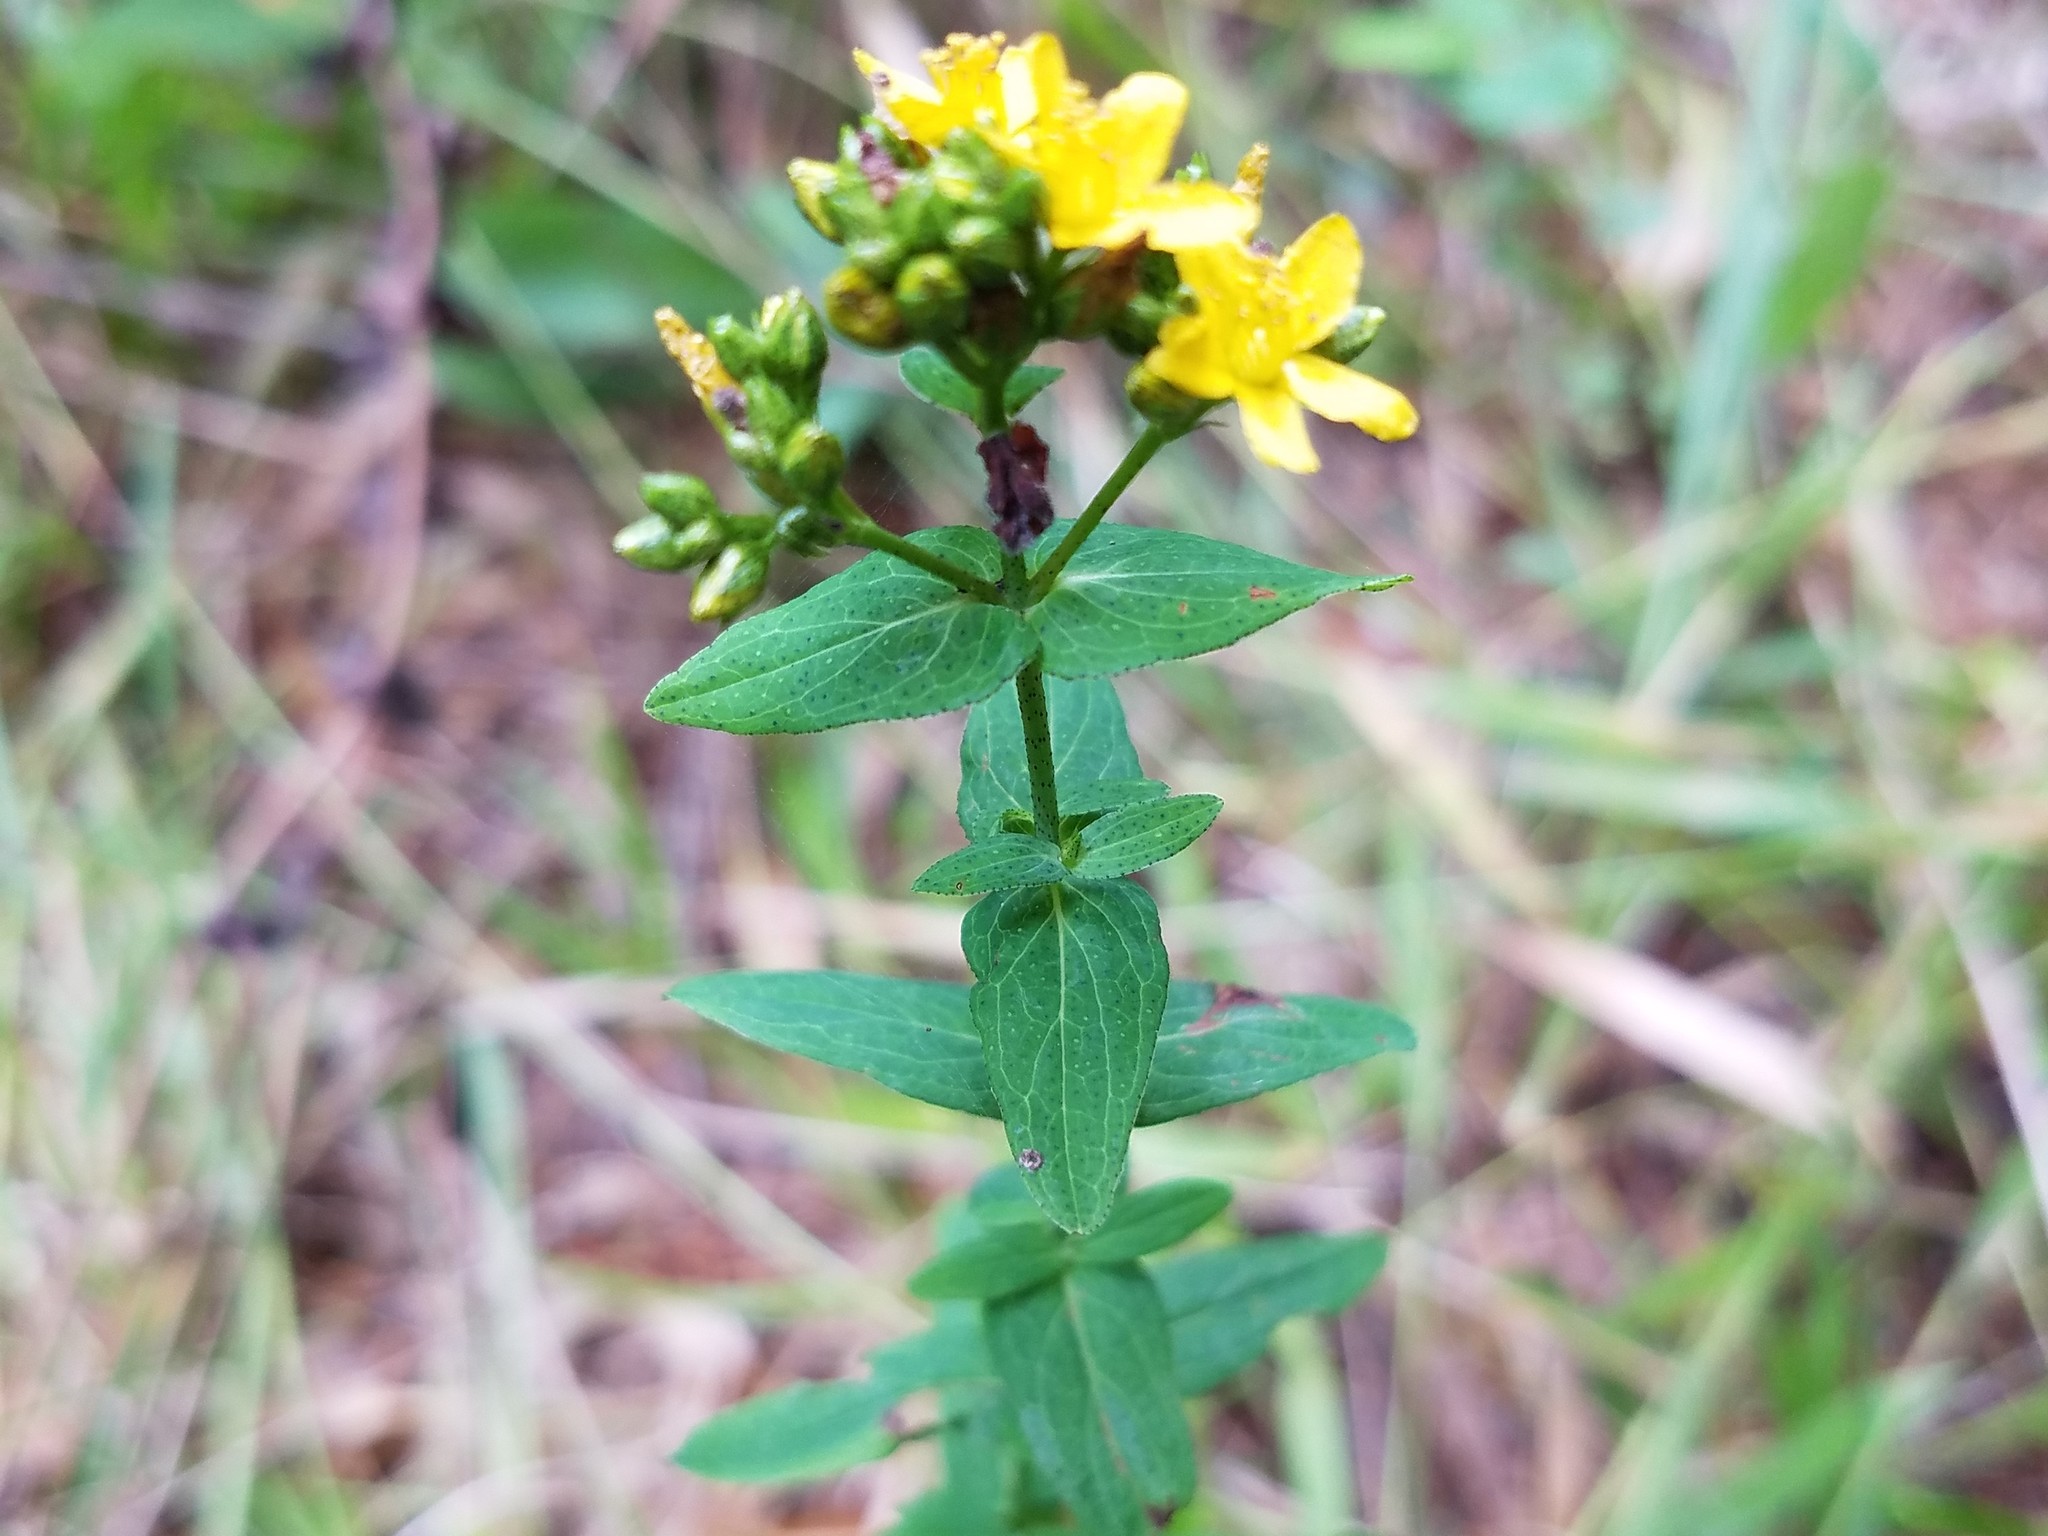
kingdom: Plantae
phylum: Tracheophyta
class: Magnoliopsida
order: Malpighiales
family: Hypericaceae
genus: Hypericum
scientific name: Hypericum punctatum
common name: Spotted st. john's-wort
